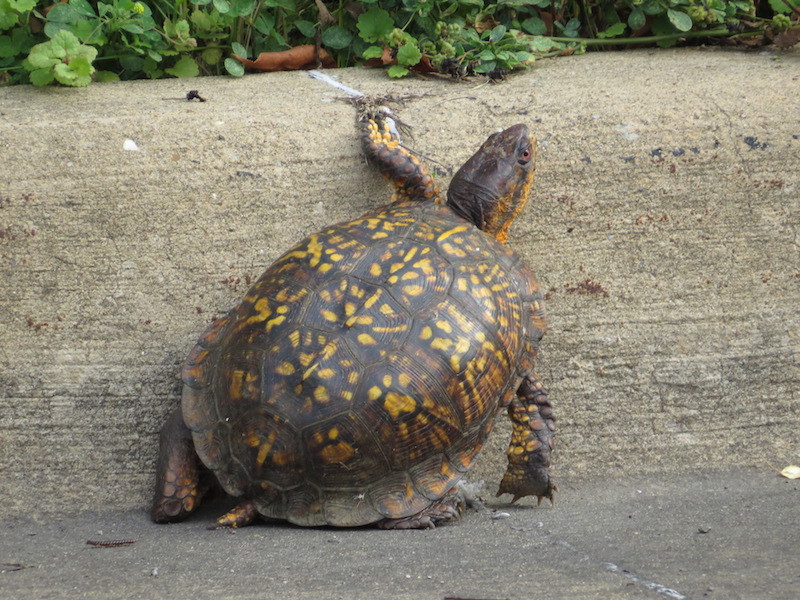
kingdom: Animalia
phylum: Chordata
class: Testudines
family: Emydidae
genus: Terrapene
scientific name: Terrapene carolina
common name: Common box turtle
